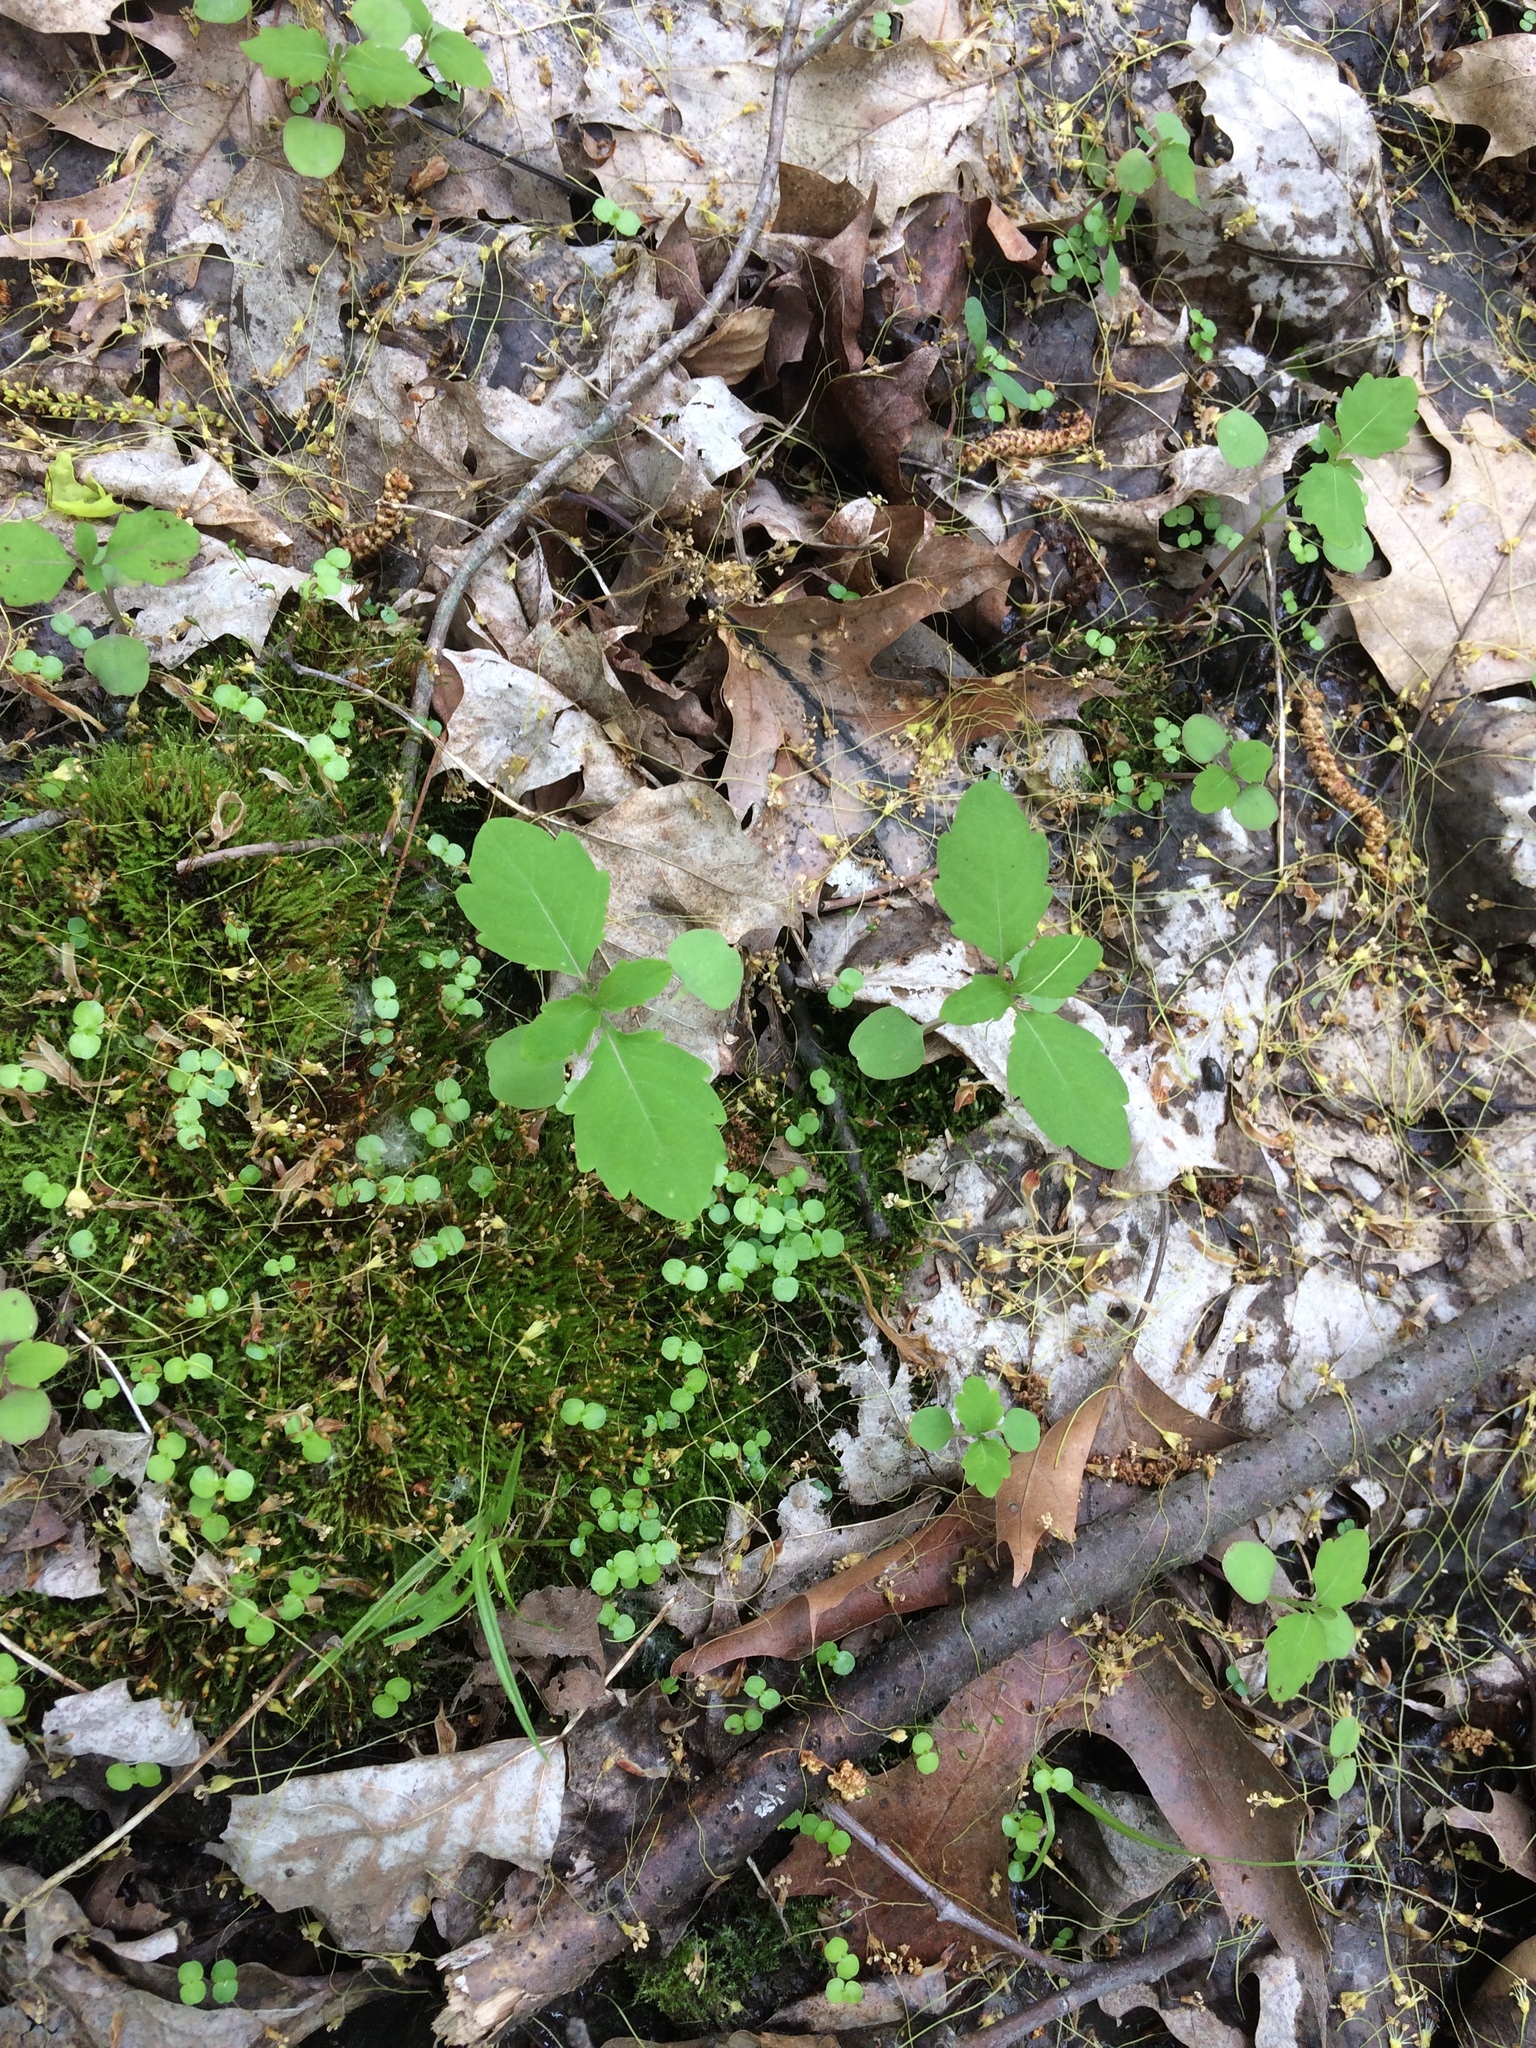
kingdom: Plantae
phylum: Tracheophyta
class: Magnoliopsida
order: Ericales
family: Balsaminaceae
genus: Impatiens
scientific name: Impatiens capensis
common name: Orange balsam
